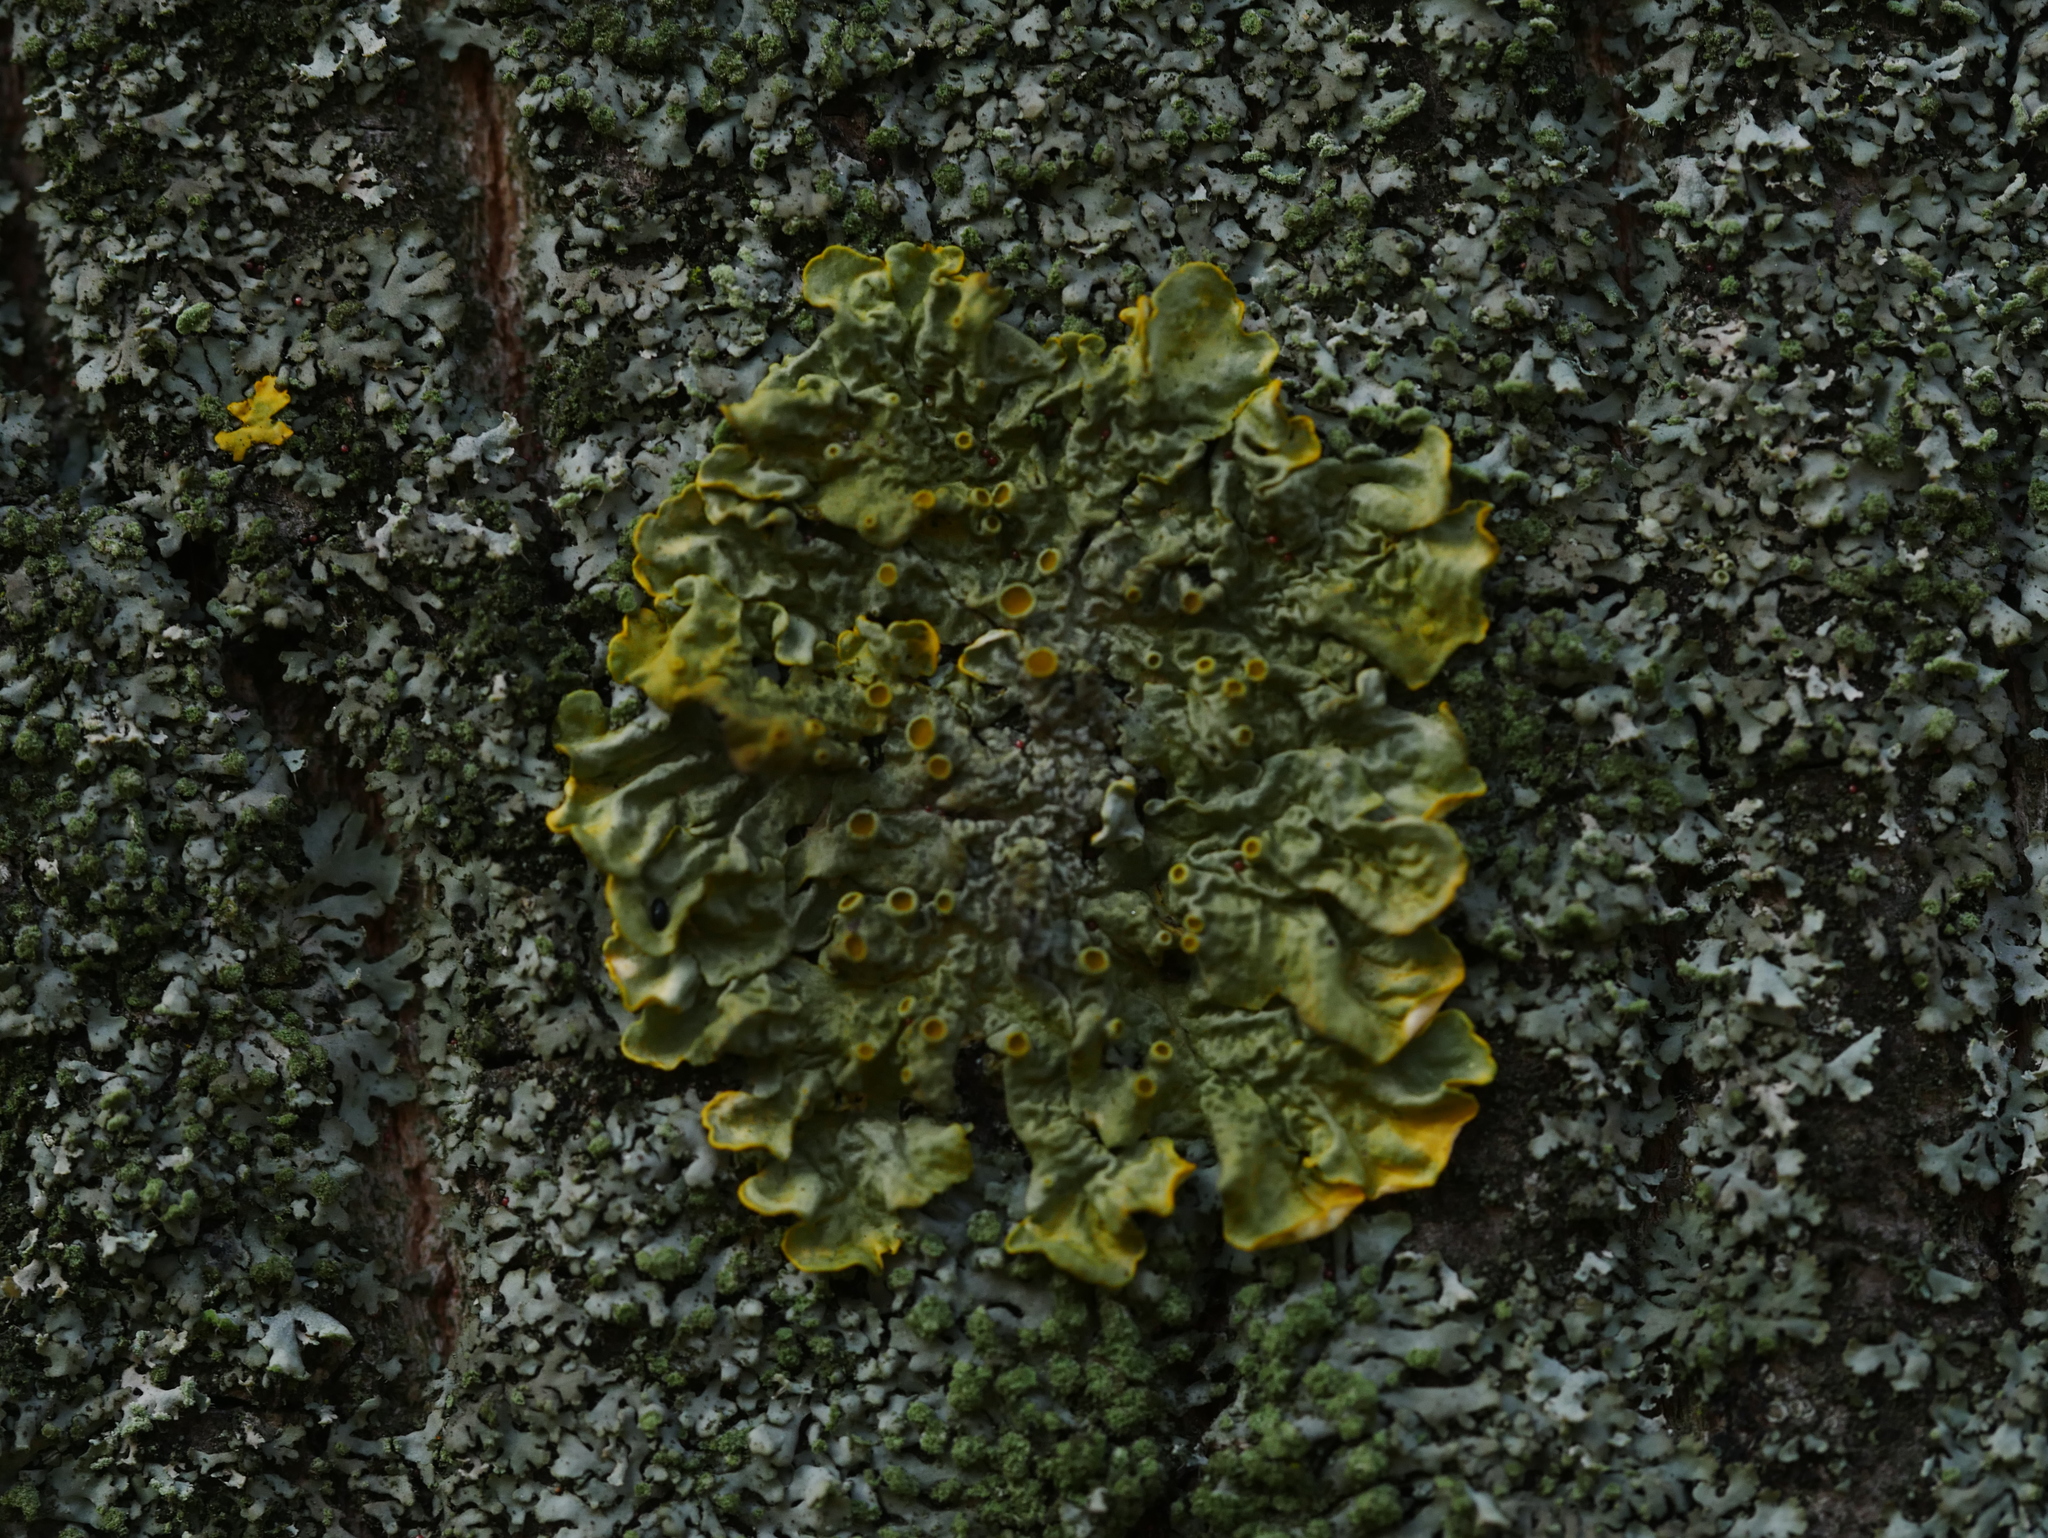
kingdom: Fungi
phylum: Ascomycota
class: Lecanoromycetes
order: Teloschistales
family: Teloschistaceae
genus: Xanthoria
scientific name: Xanthoria parietina
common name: Common orange lichen
